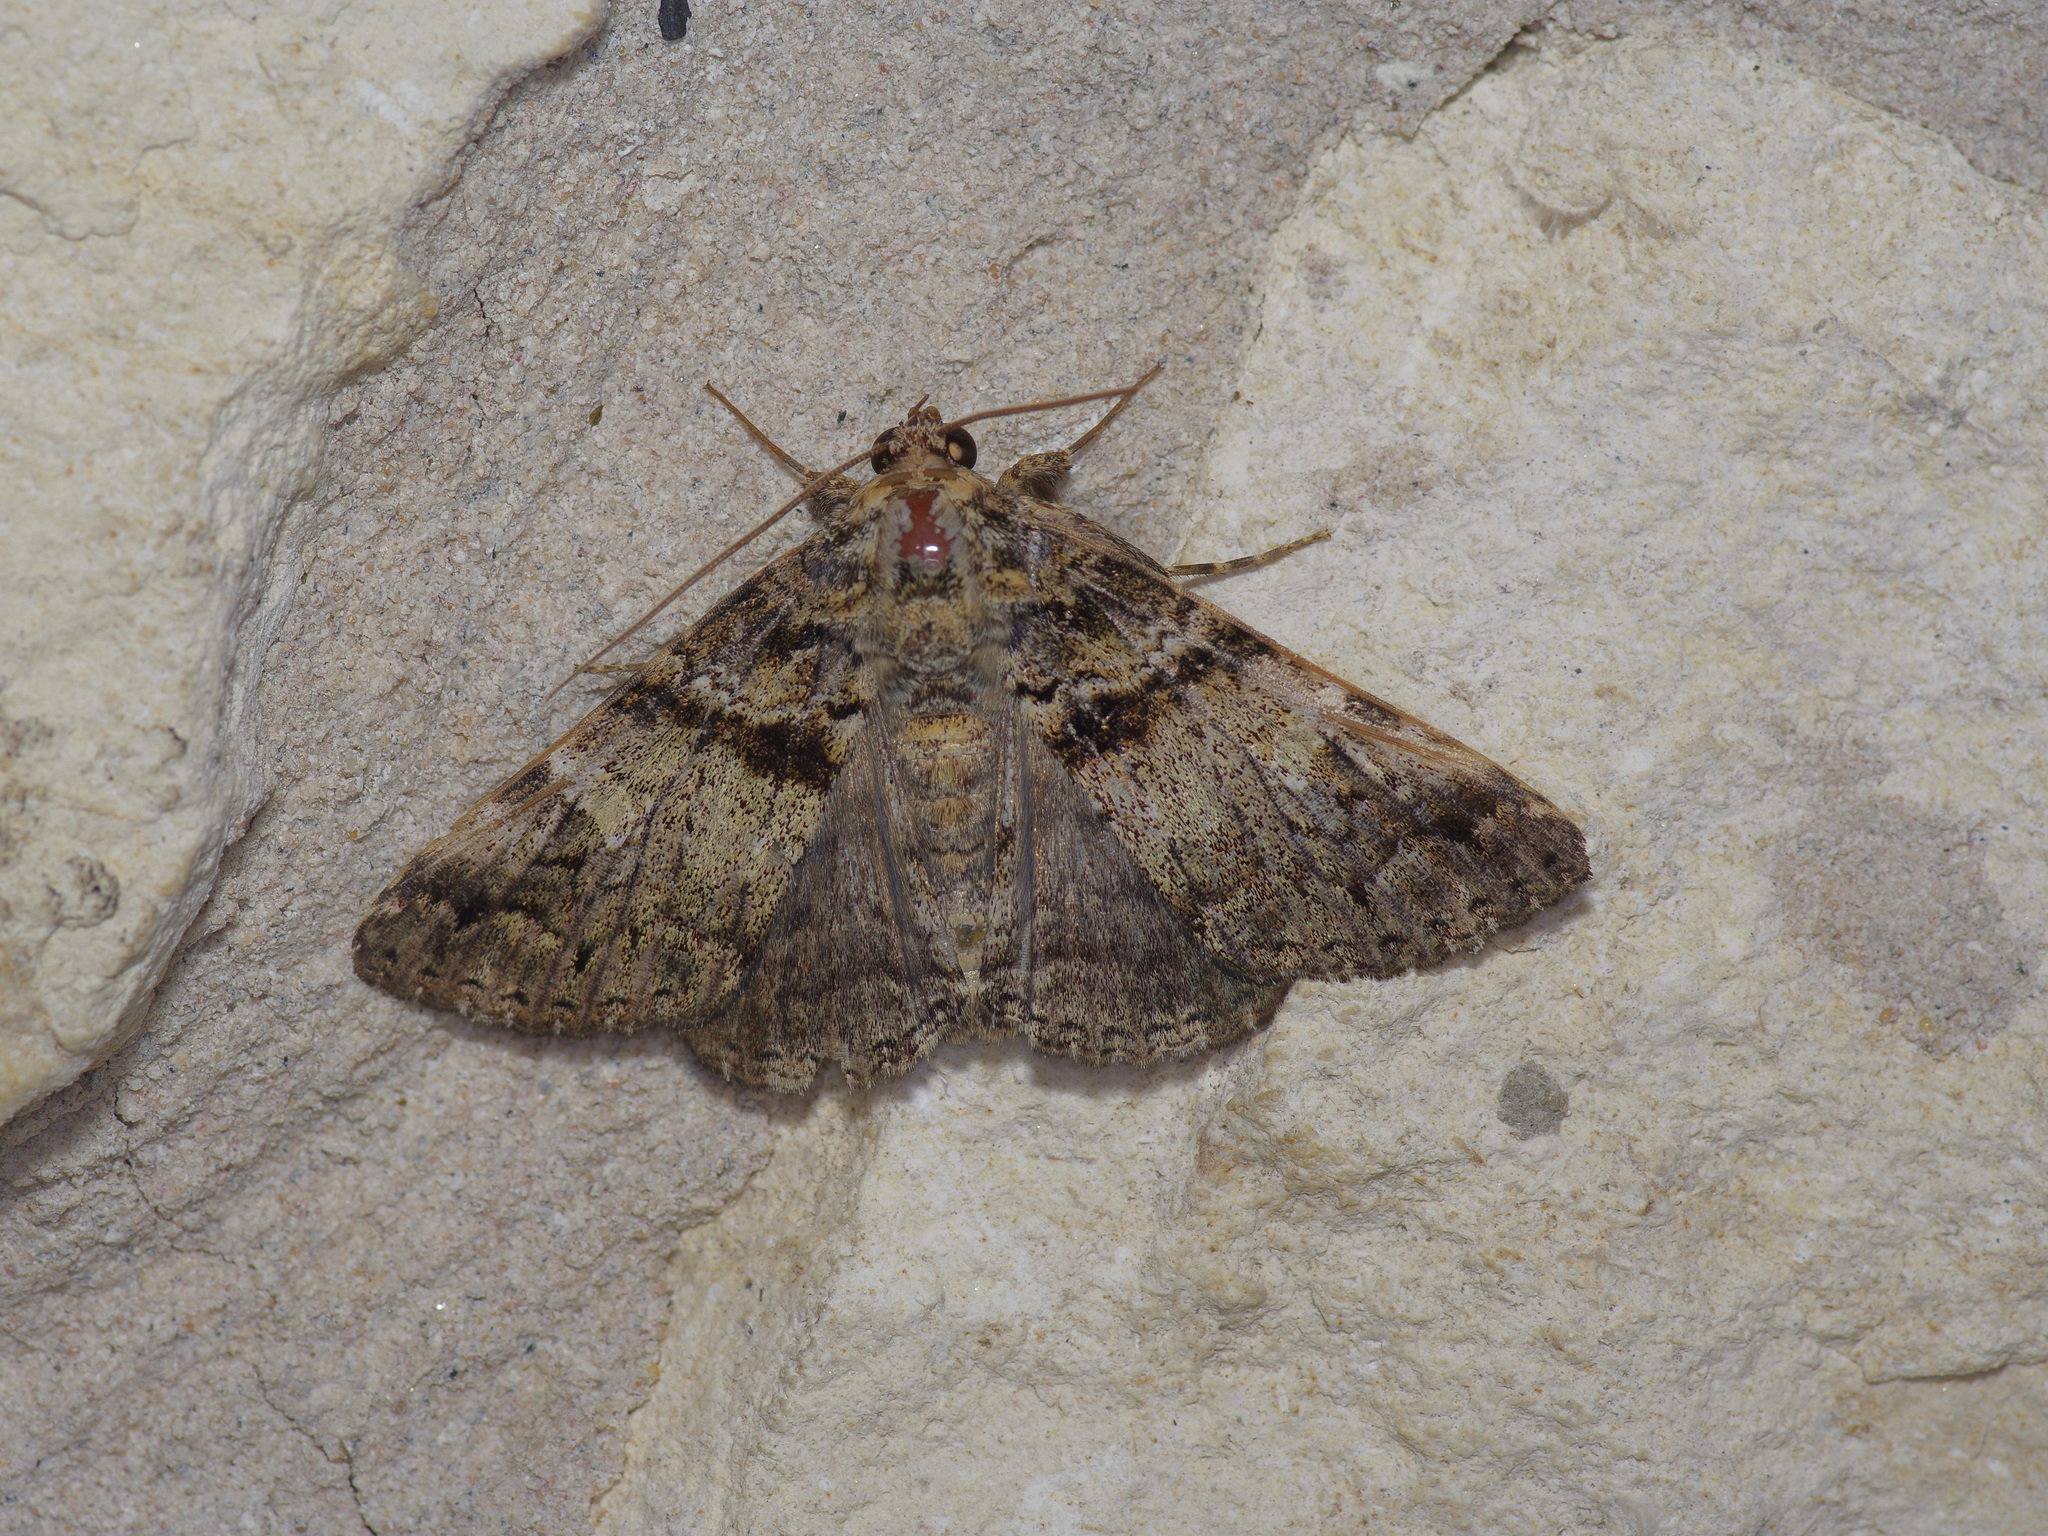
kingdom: Animalia
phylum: Arthropoda
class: Insecta
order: Lepidoptera
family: Erebidae
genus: Metria
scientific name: Metria amella
